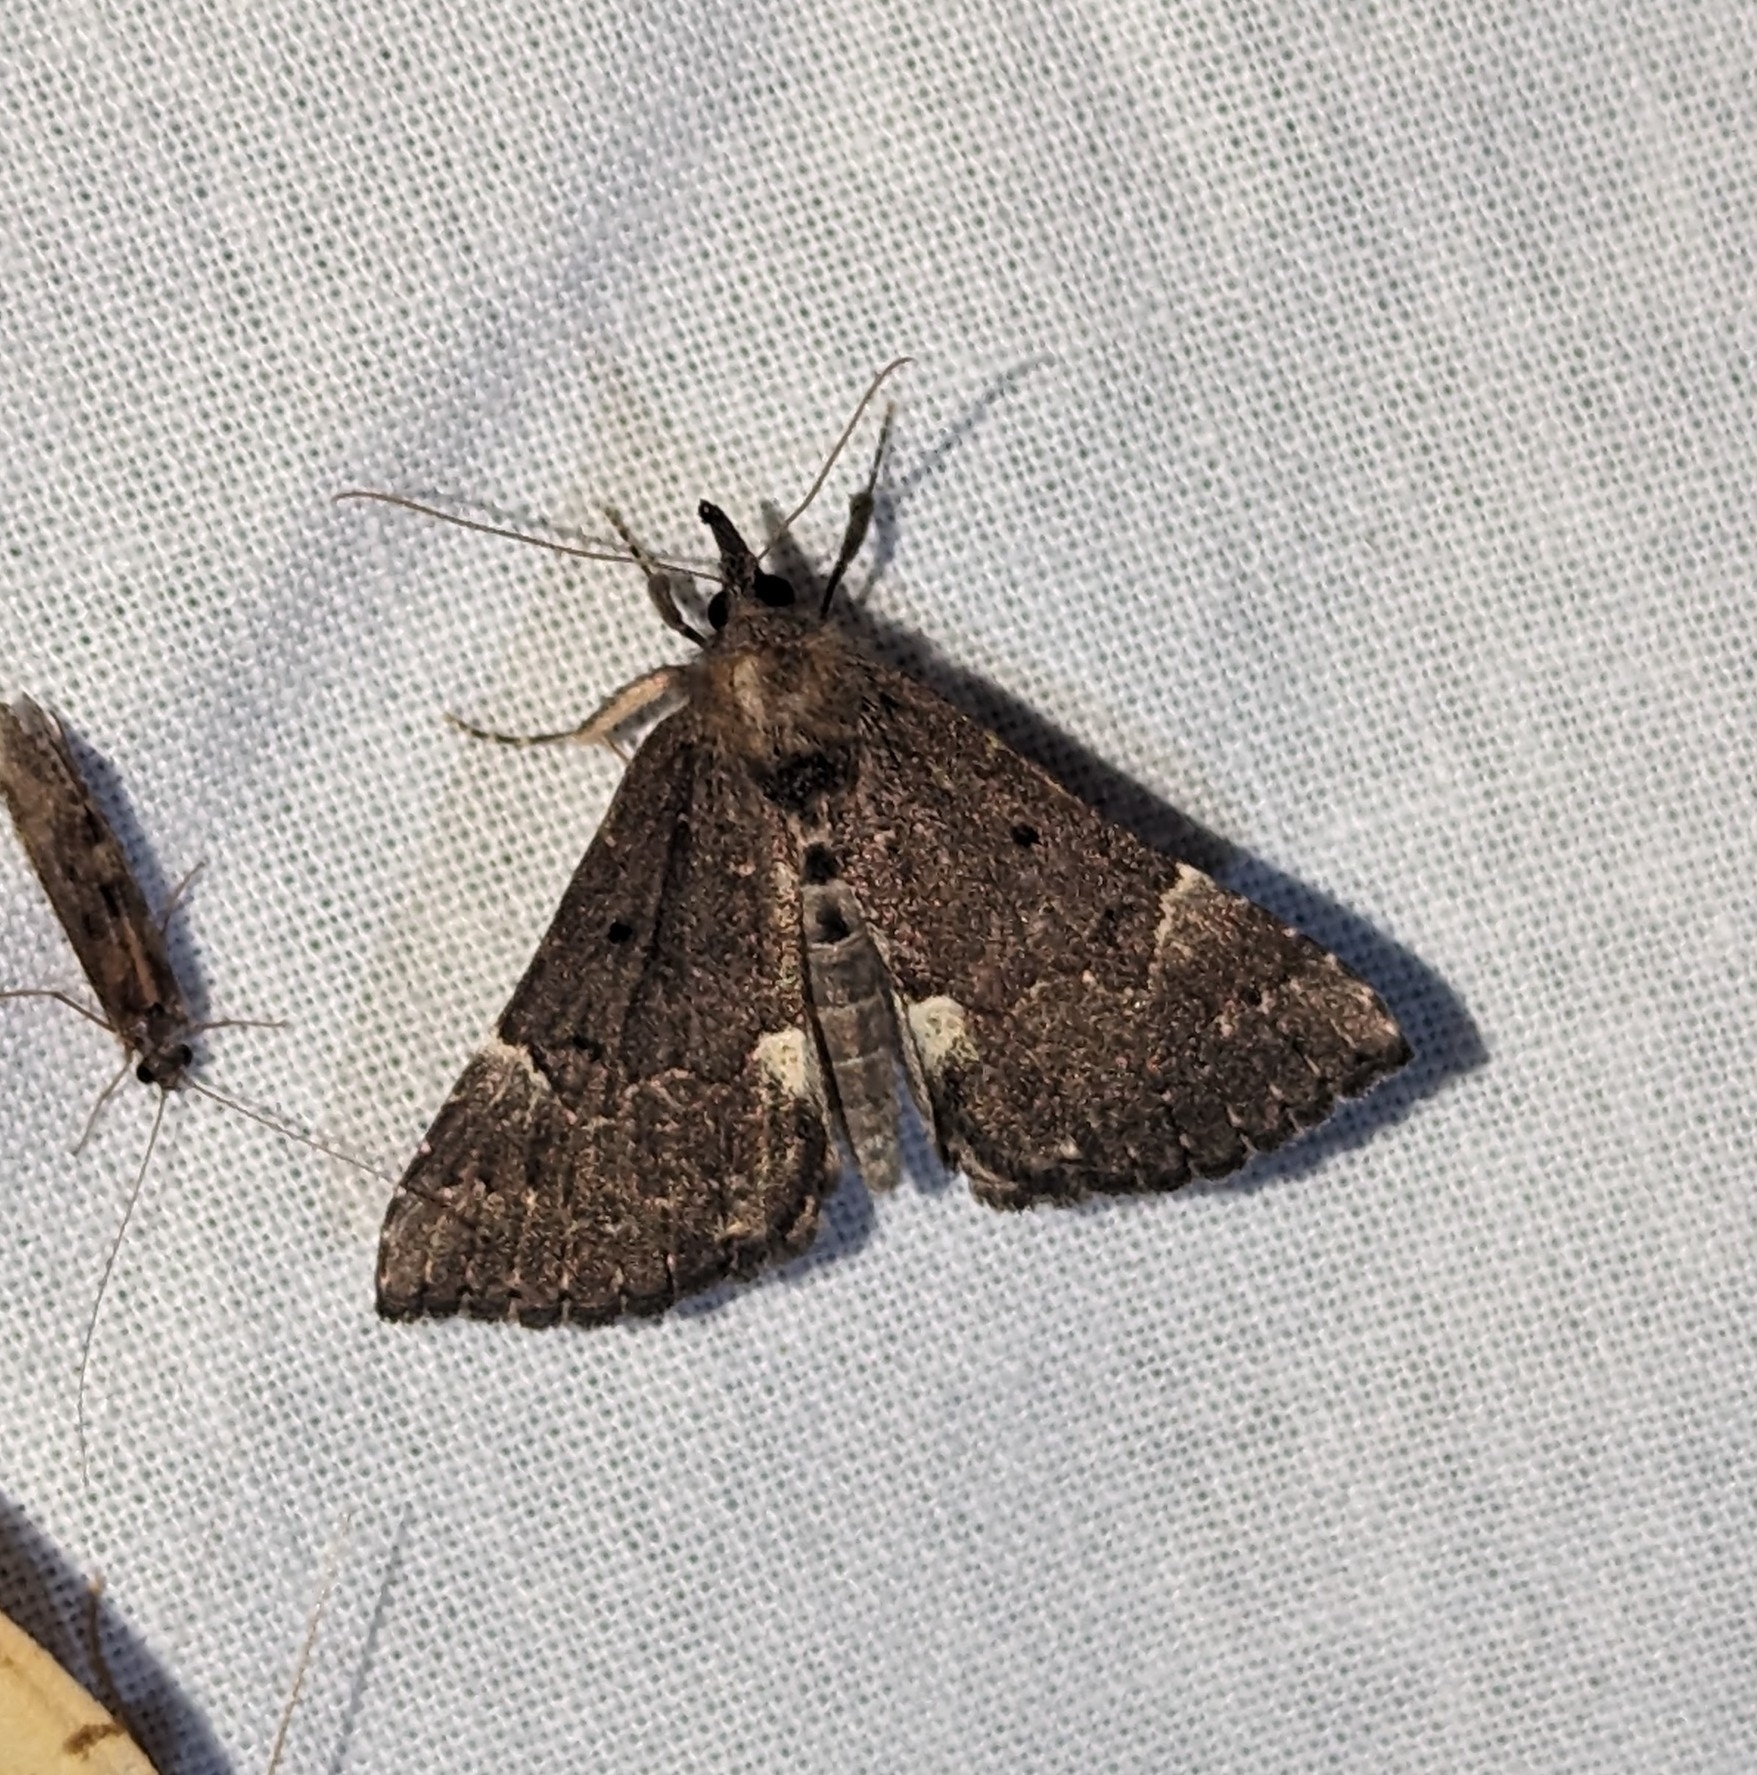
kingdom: Animalia
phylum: Arthropoda
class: Insecta
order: Lepidoptera
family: Erebidae
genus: Hypena
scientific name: Hypena bijugalis
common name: Dimorphic bomolocha moth
